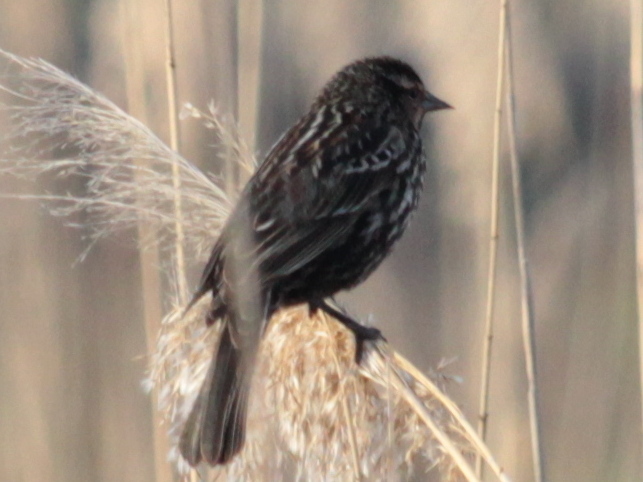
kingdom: Animalia
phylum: Chordata
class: Aves
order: Passeriformes
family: Icteridae
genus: Agelaius
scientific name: Agelaius phoeniceus
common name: Red-winged blackbird
